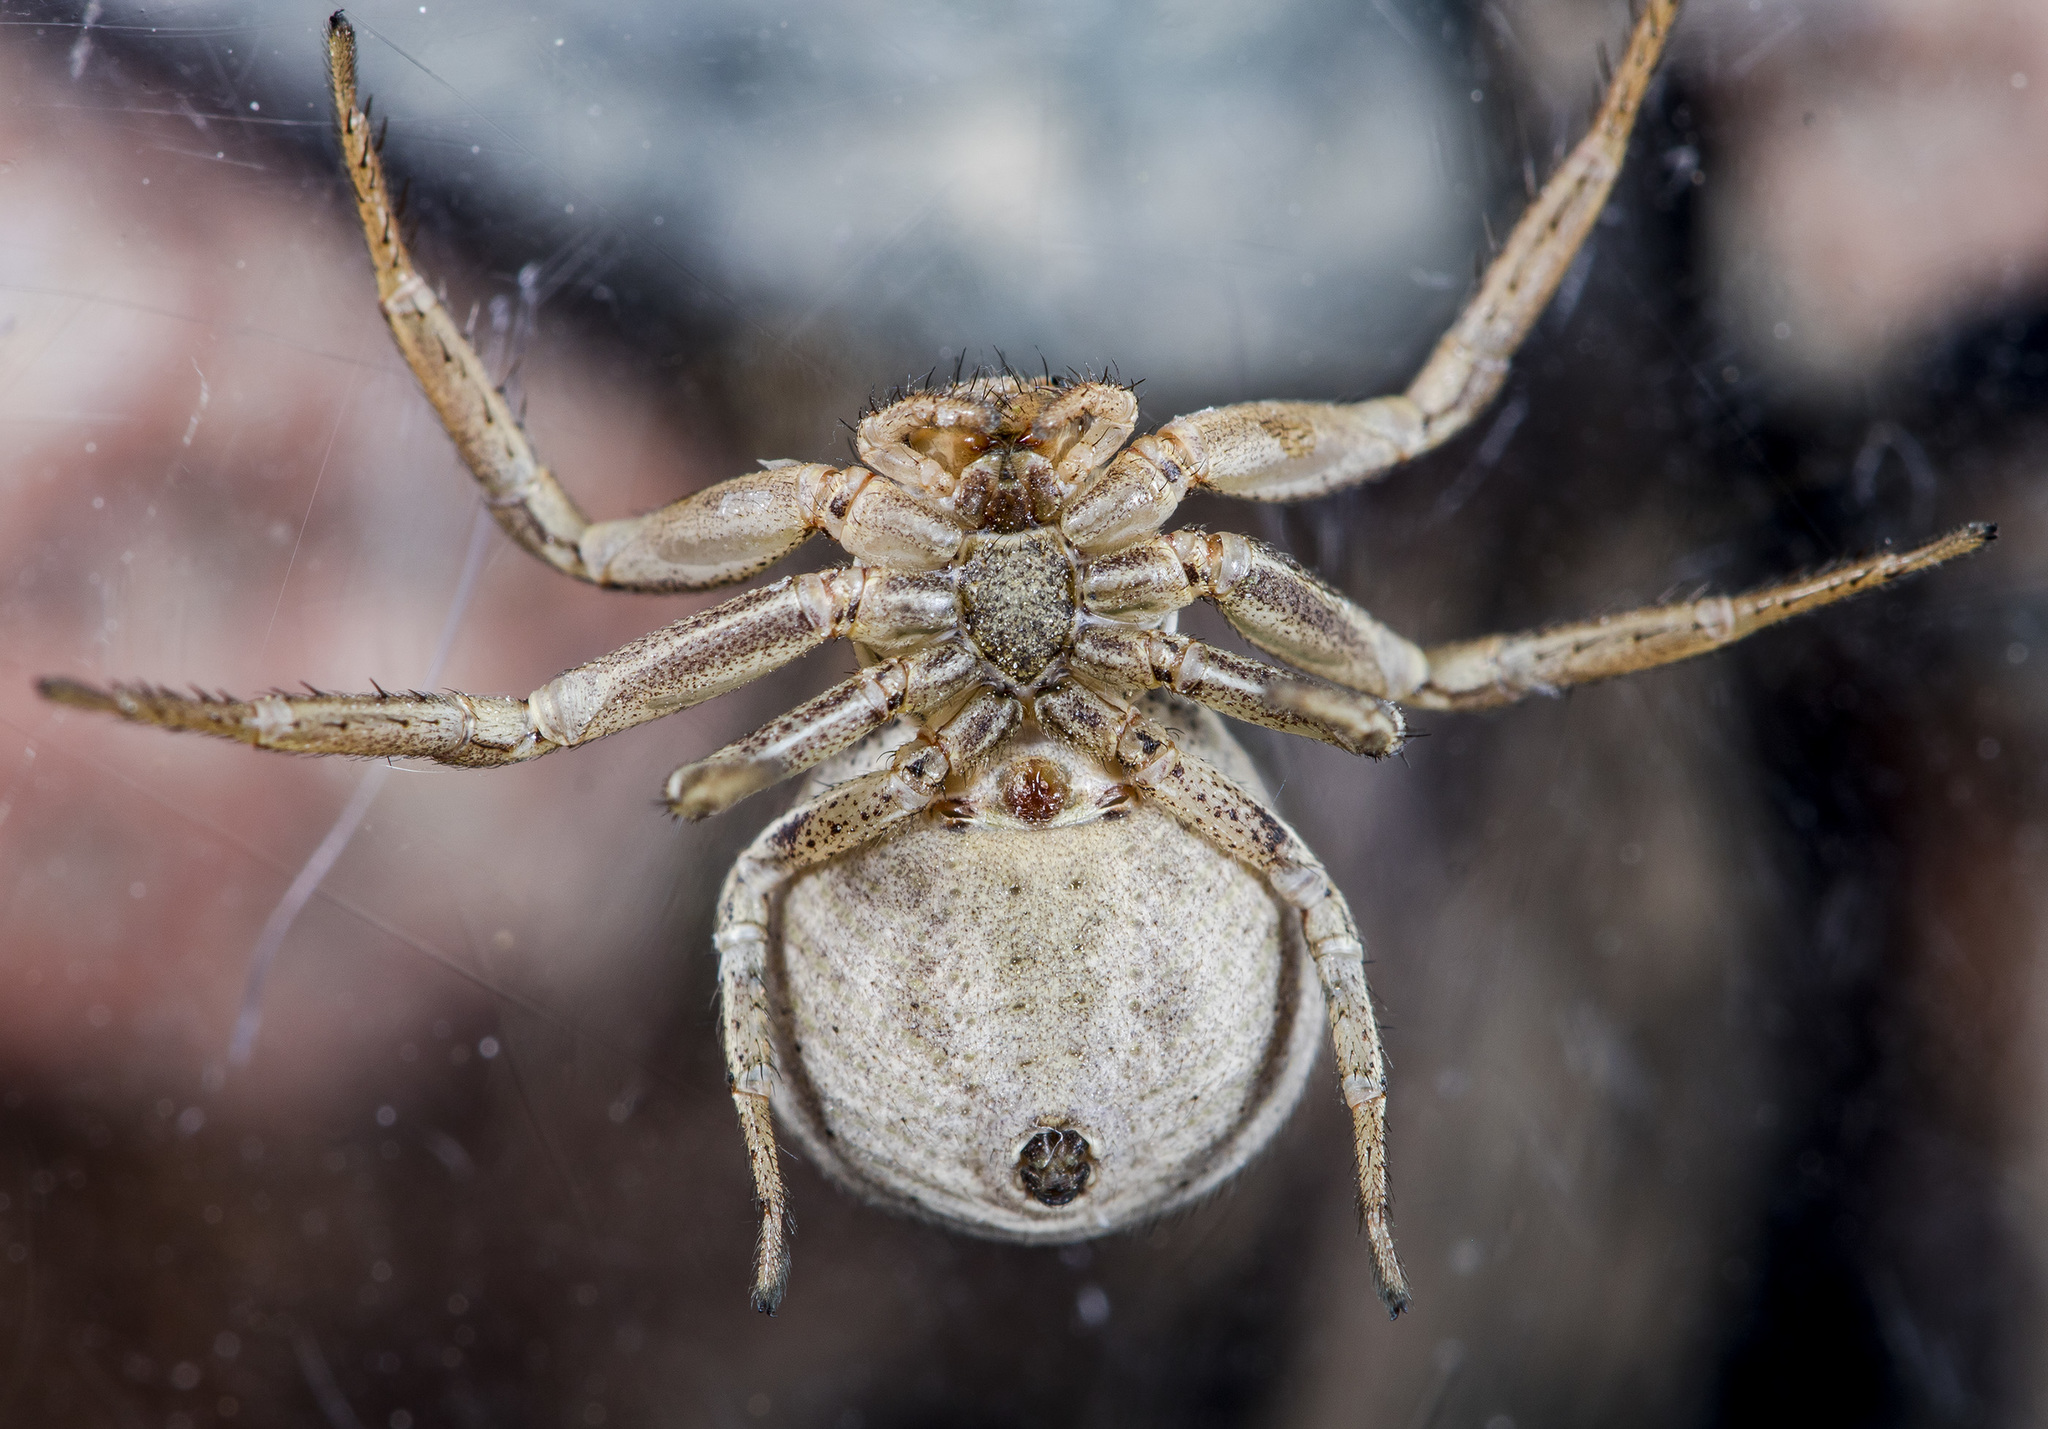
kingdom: Animalia
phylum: Arthropoda
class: Arachnida
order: Araneae
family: Thomisidae
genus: Xysticus
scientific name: Xysticus pseudocristatus
